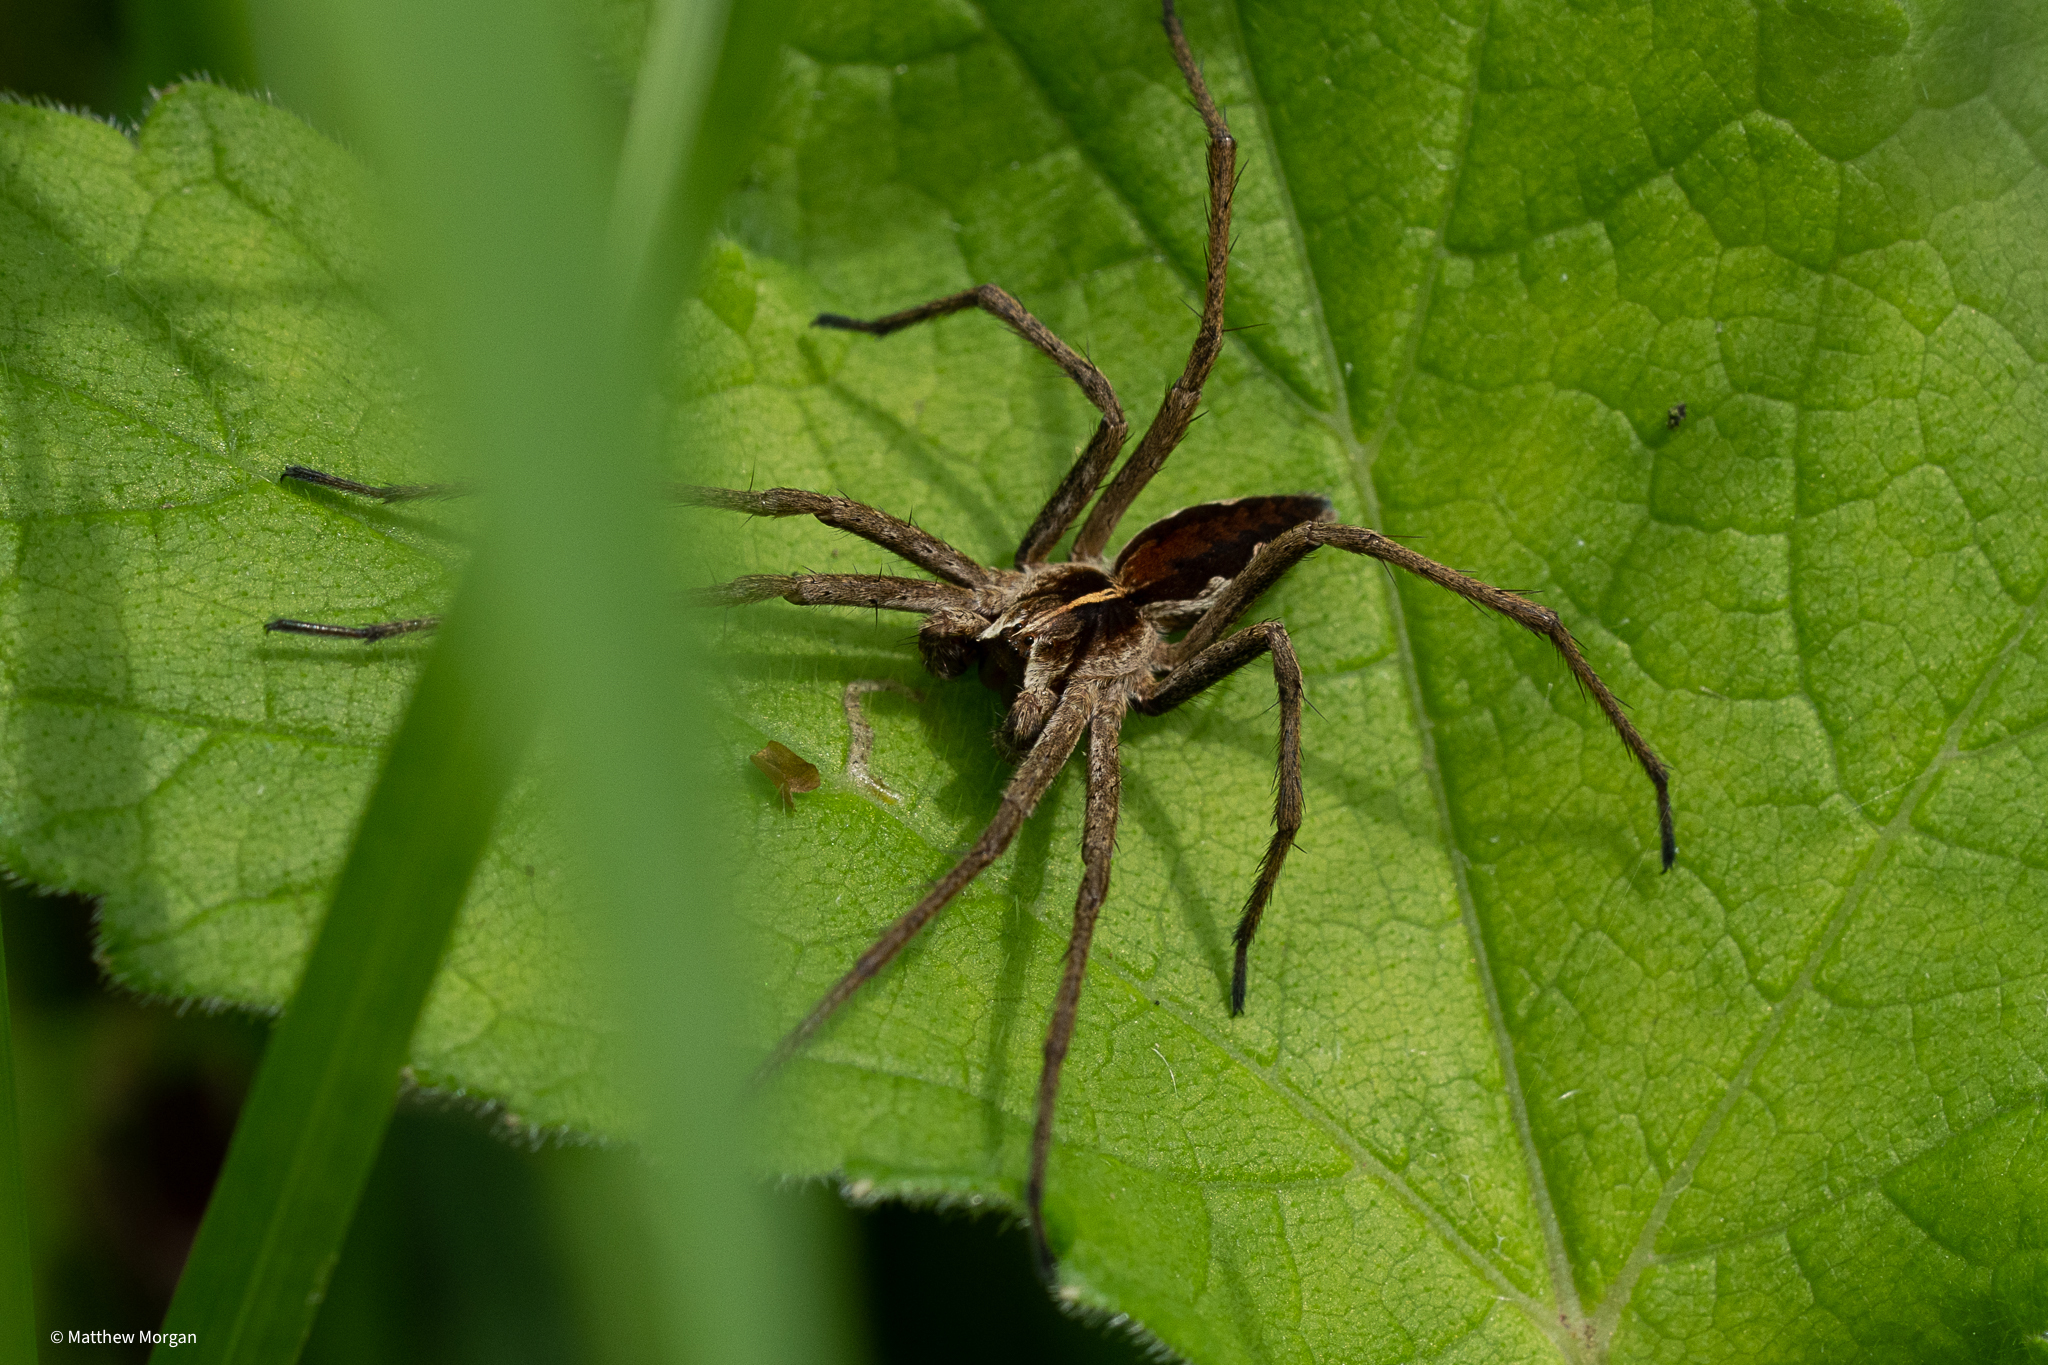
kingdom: Animalia
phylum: Arthropoda
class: Arachnida
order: Araneae
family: Pisauridae
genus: Pisaura
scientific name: Pisaura mirabilis
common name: Tent spider
